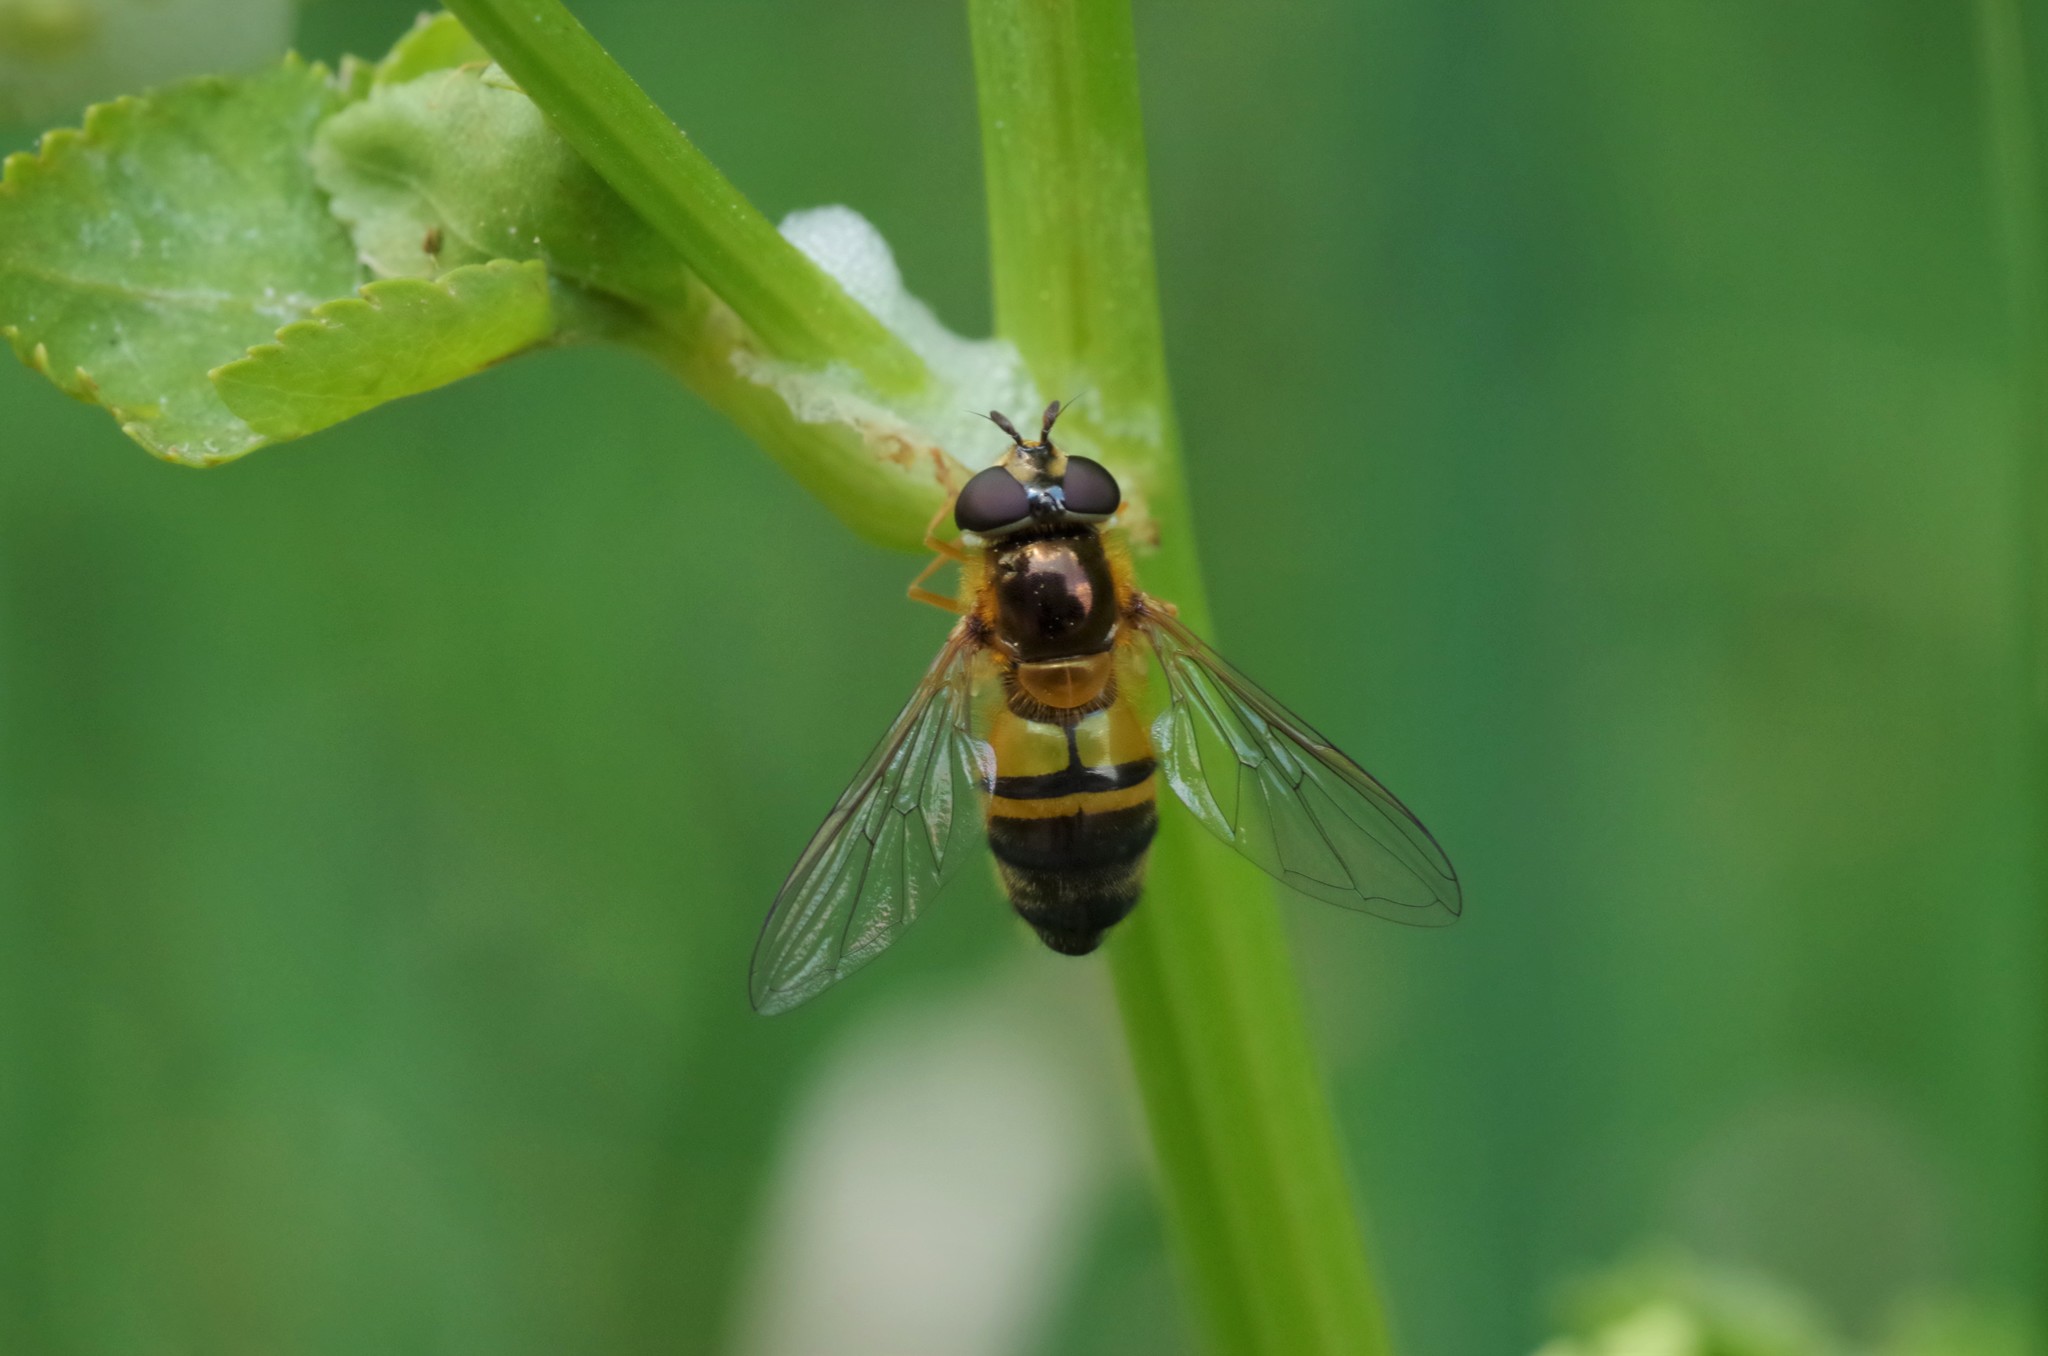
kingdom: Animalia
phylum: Arthropoda
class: Insecta
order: Diptera
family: Syrphidae
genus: Epistrophe
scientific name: Epistrophe eligans
